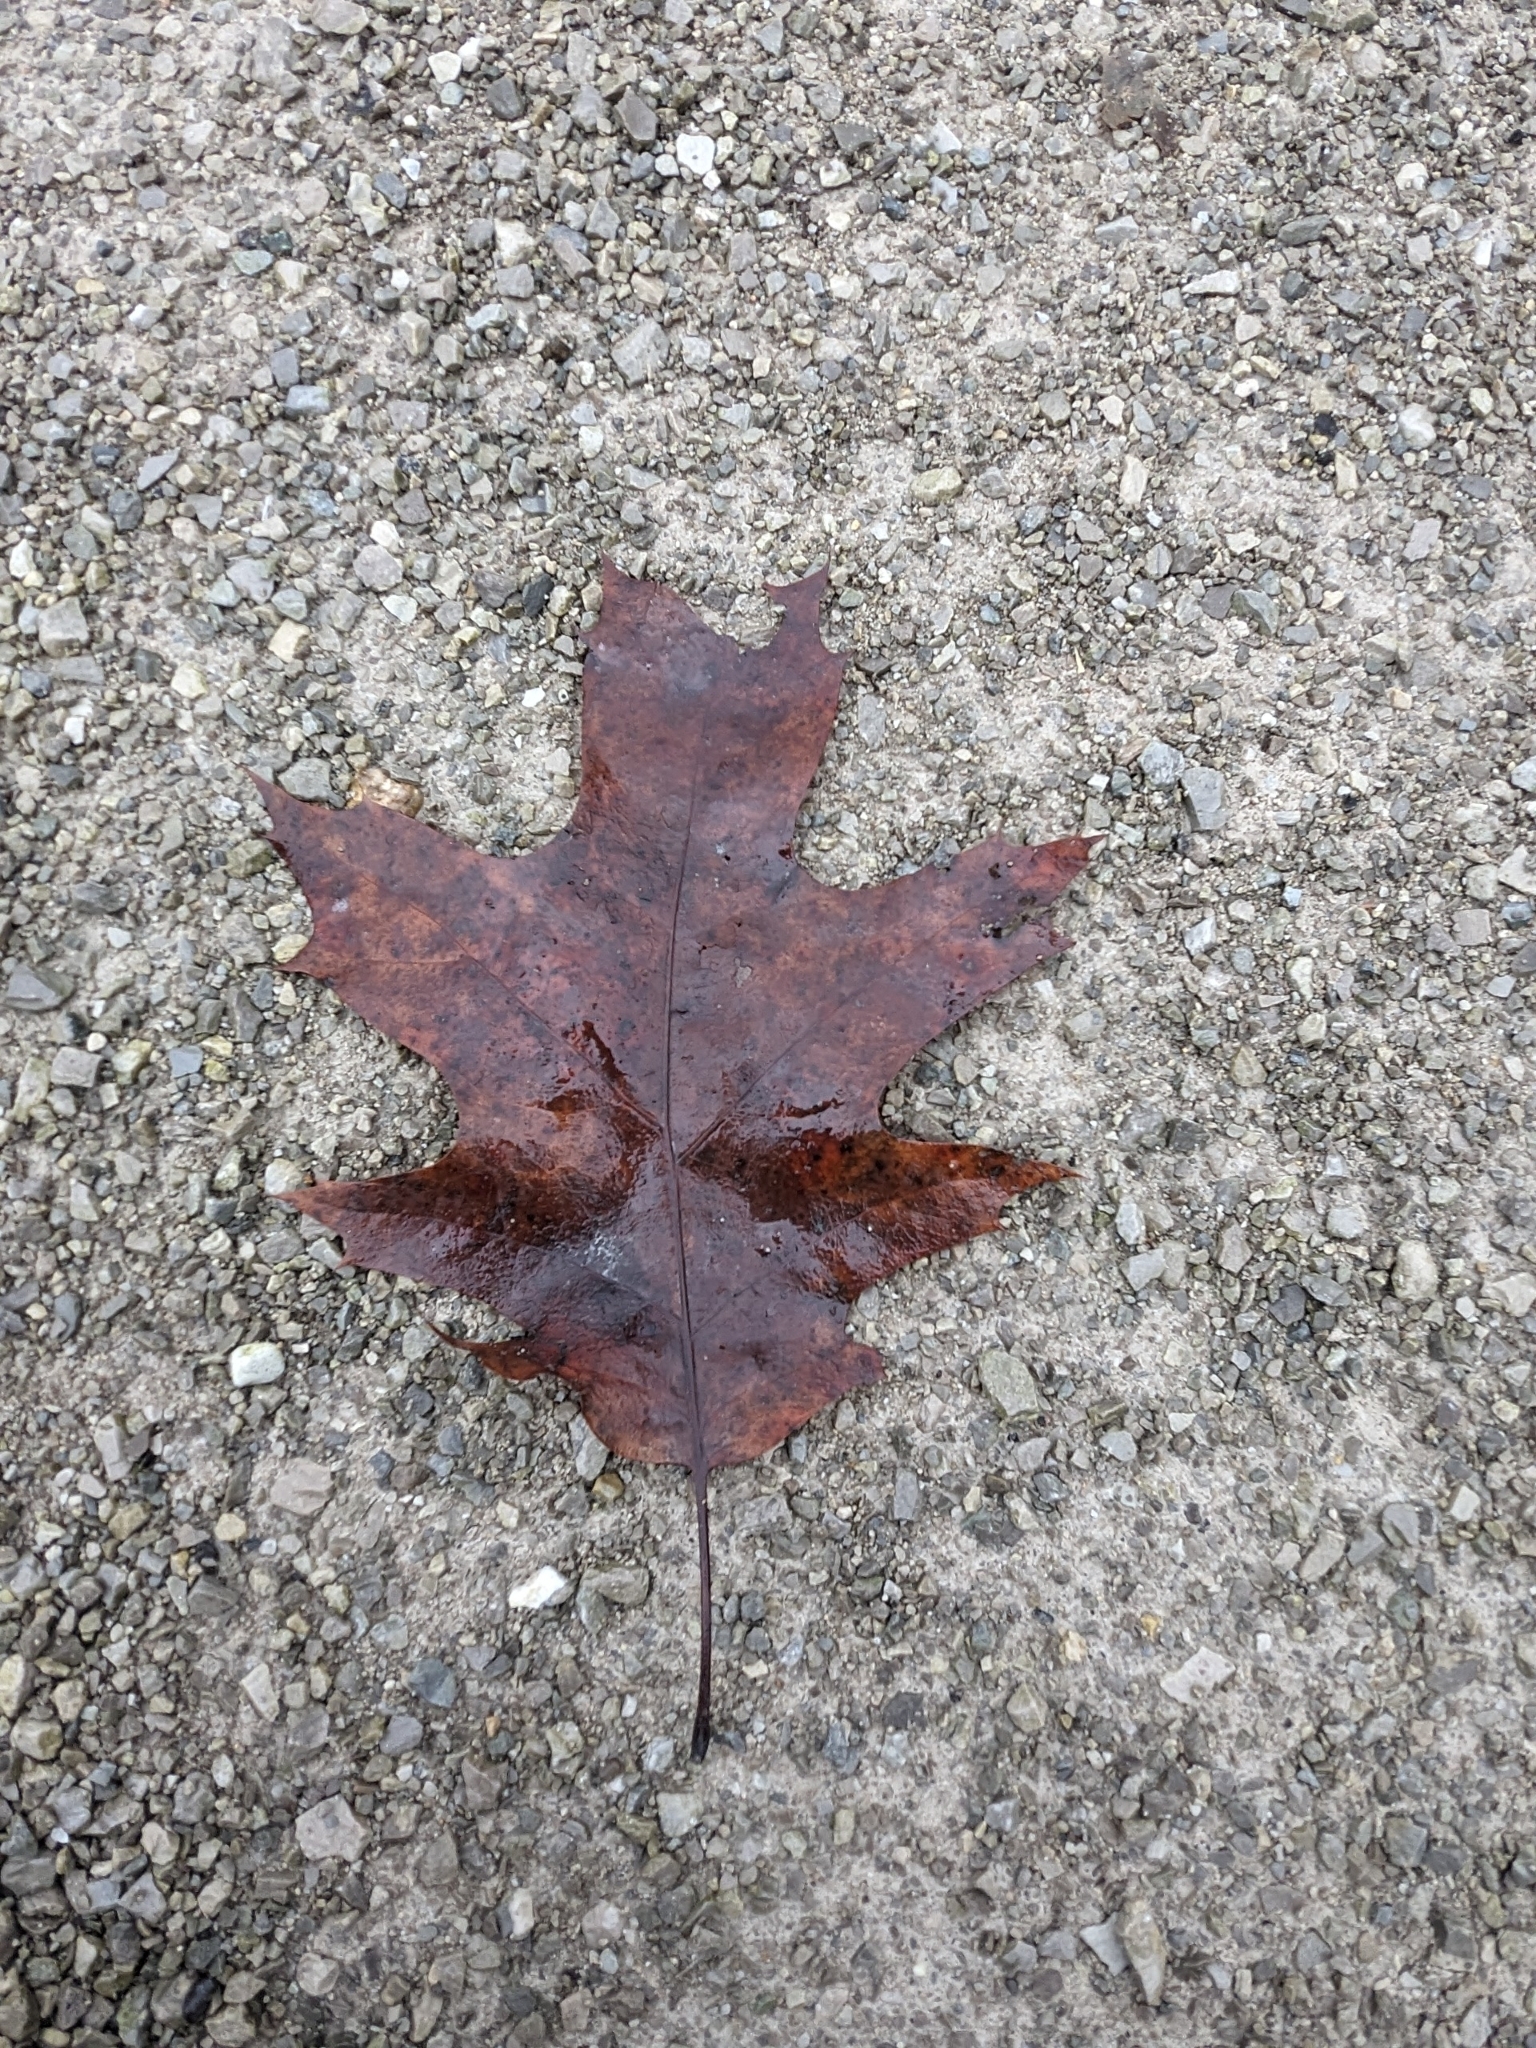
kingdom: Plantae
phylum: Tracheophyta
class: Magnoliopsida
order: Fagales
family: Fagaceae
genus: Quercus
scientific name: Quercus rubra
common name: Red oak
